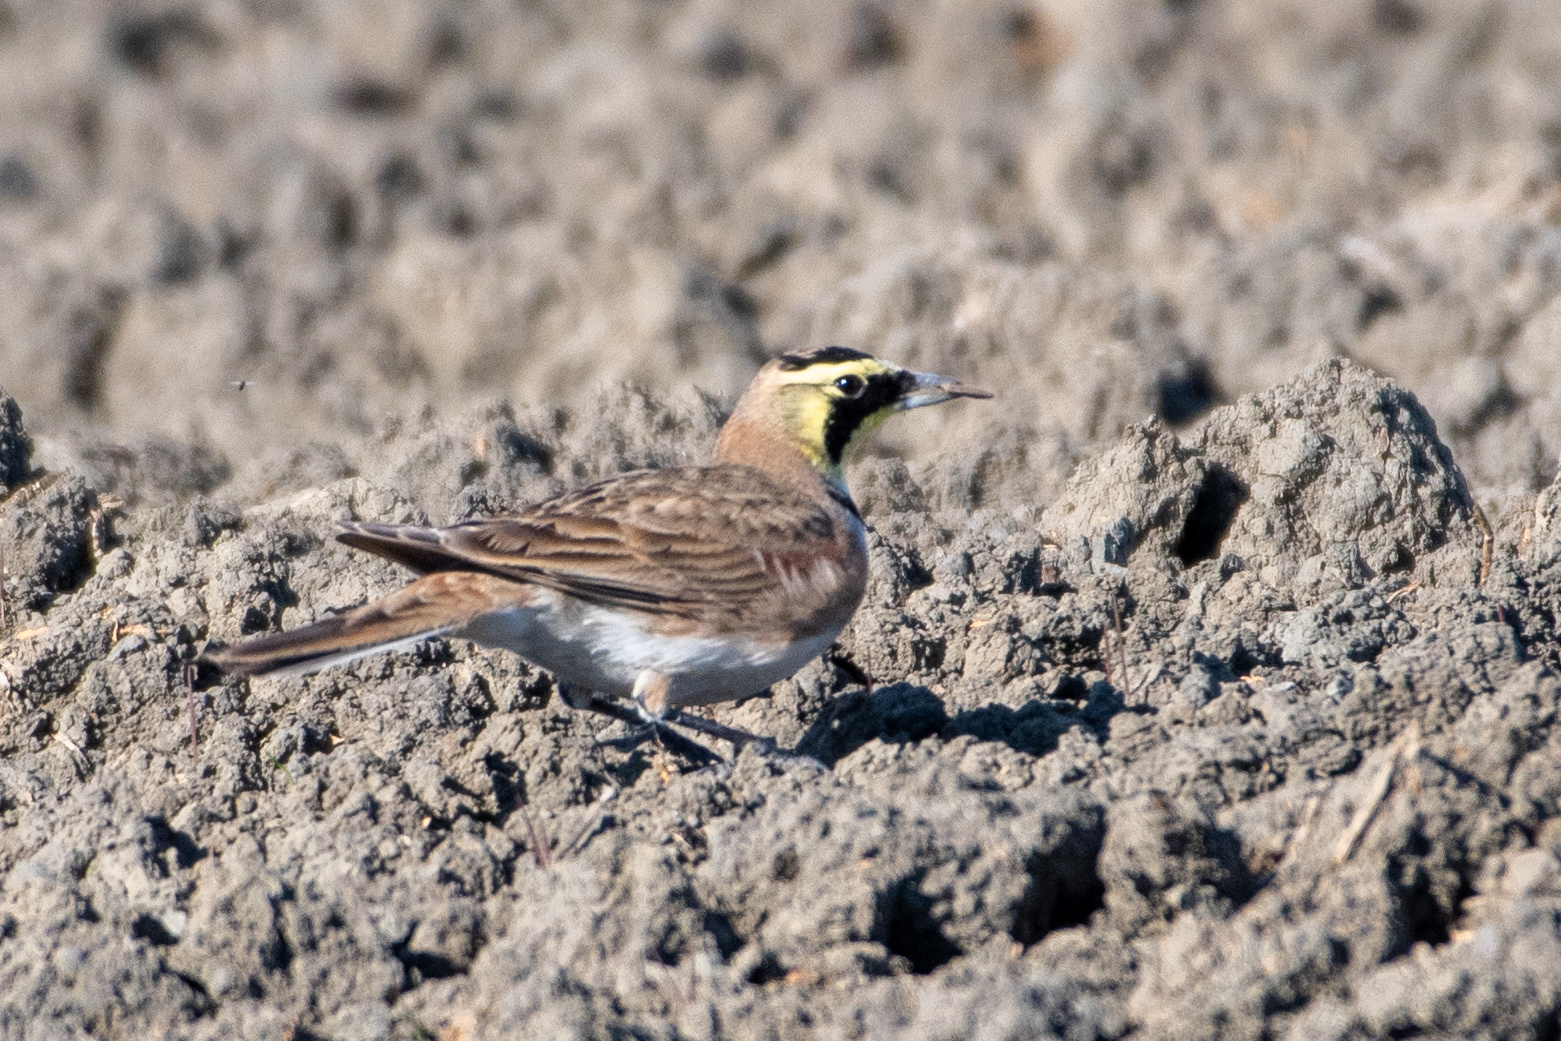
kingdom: Animalia
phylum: Chordata
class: Aves
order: Passeriformes
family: Alaudidae
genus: Eremophila
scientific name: Eremophila alpestris
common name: Horned lark
